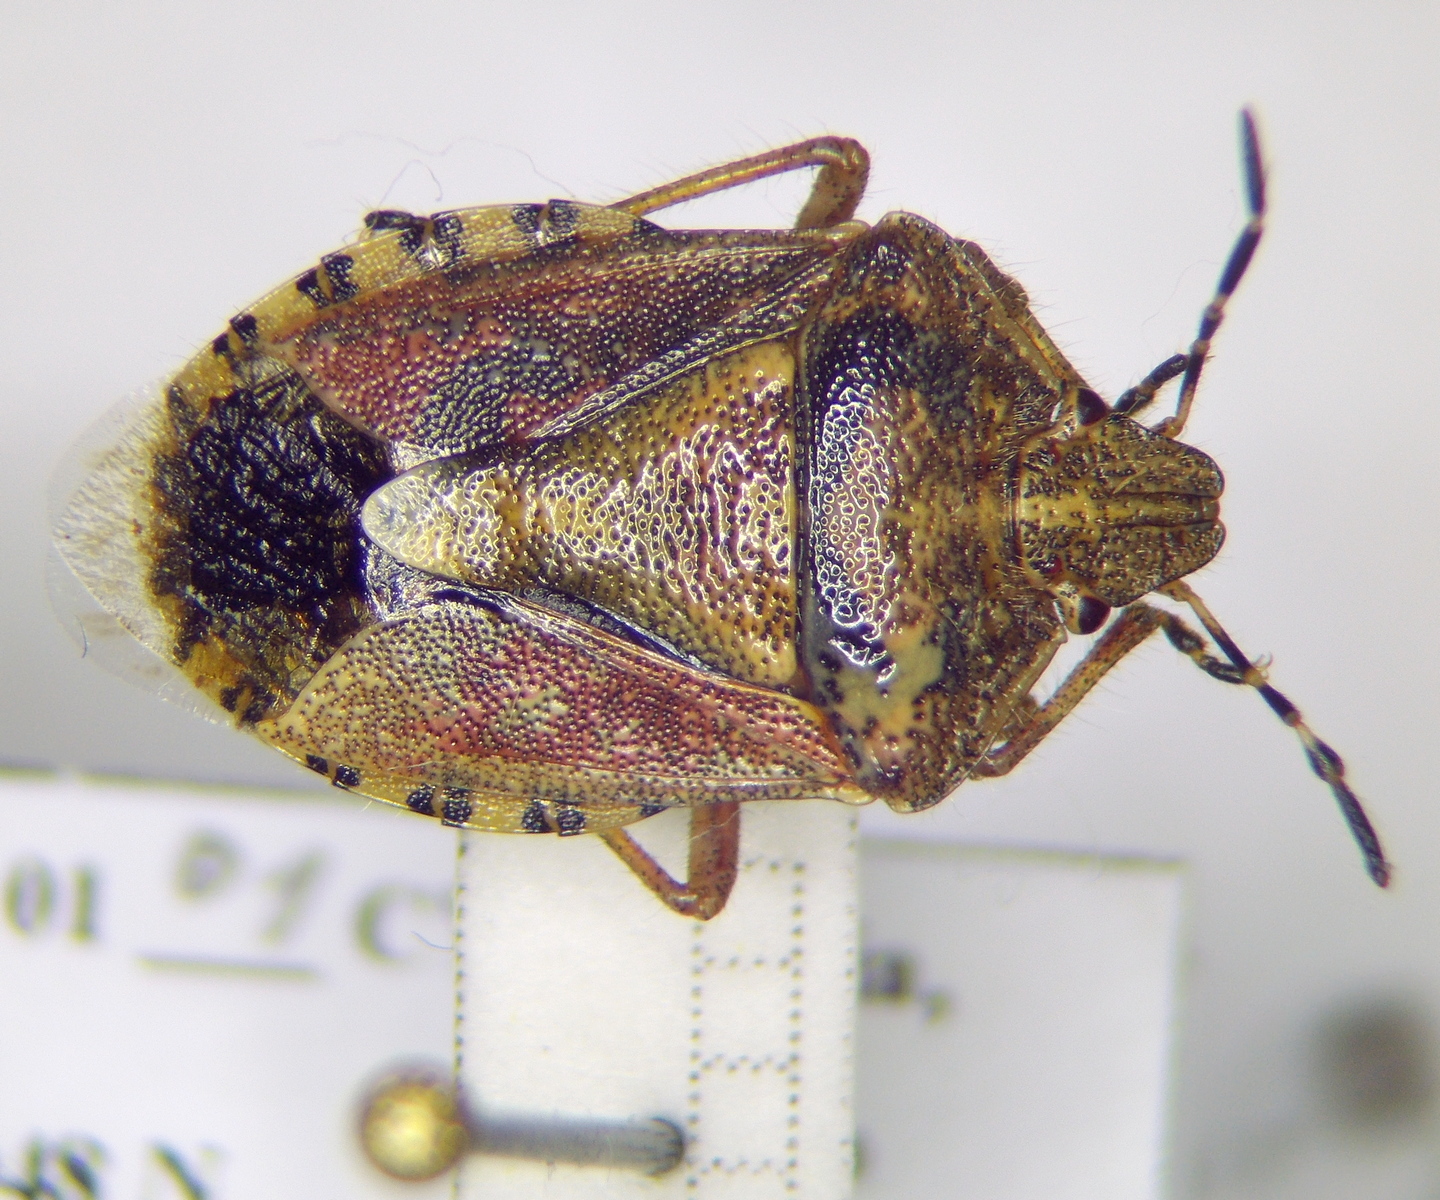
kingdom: Animalia
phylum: Arthropoda
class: Insecta
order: Hemiptera
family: Pentatomidae
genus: Dolycoris
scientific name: Dolycoris baccarum
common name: Sloe bug
